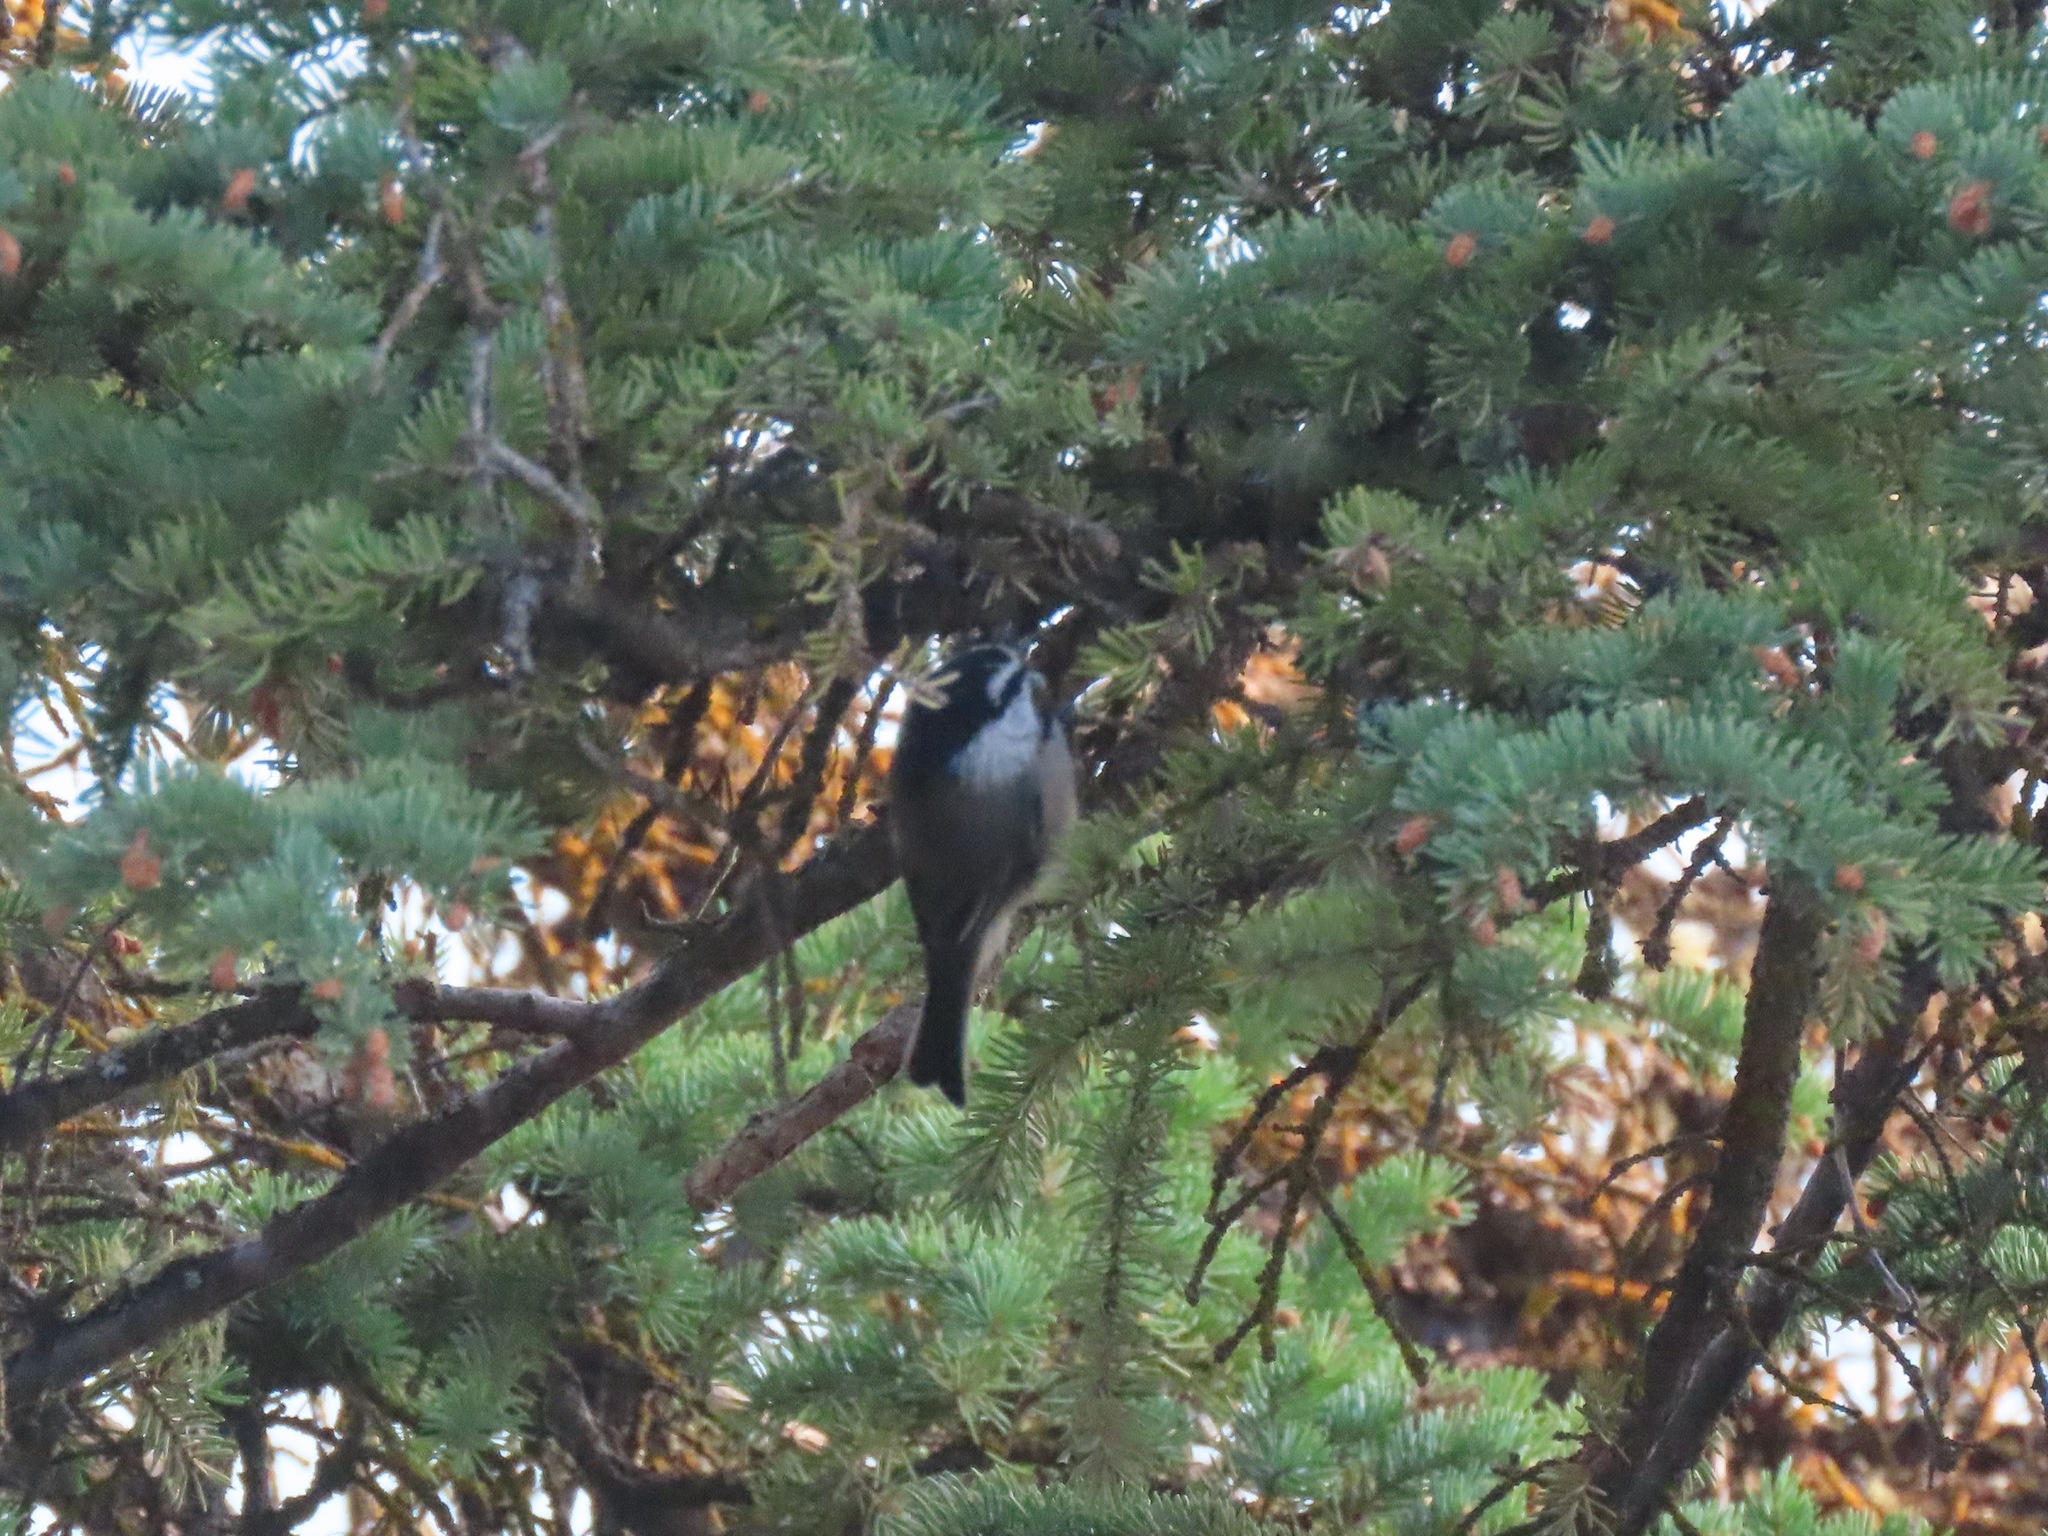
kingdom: Animalia
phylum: Chordata
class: Aves
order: Passeriformes
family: Paridae
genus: Poecile
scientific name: Poecile gambeli
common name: Mountain chickadee
